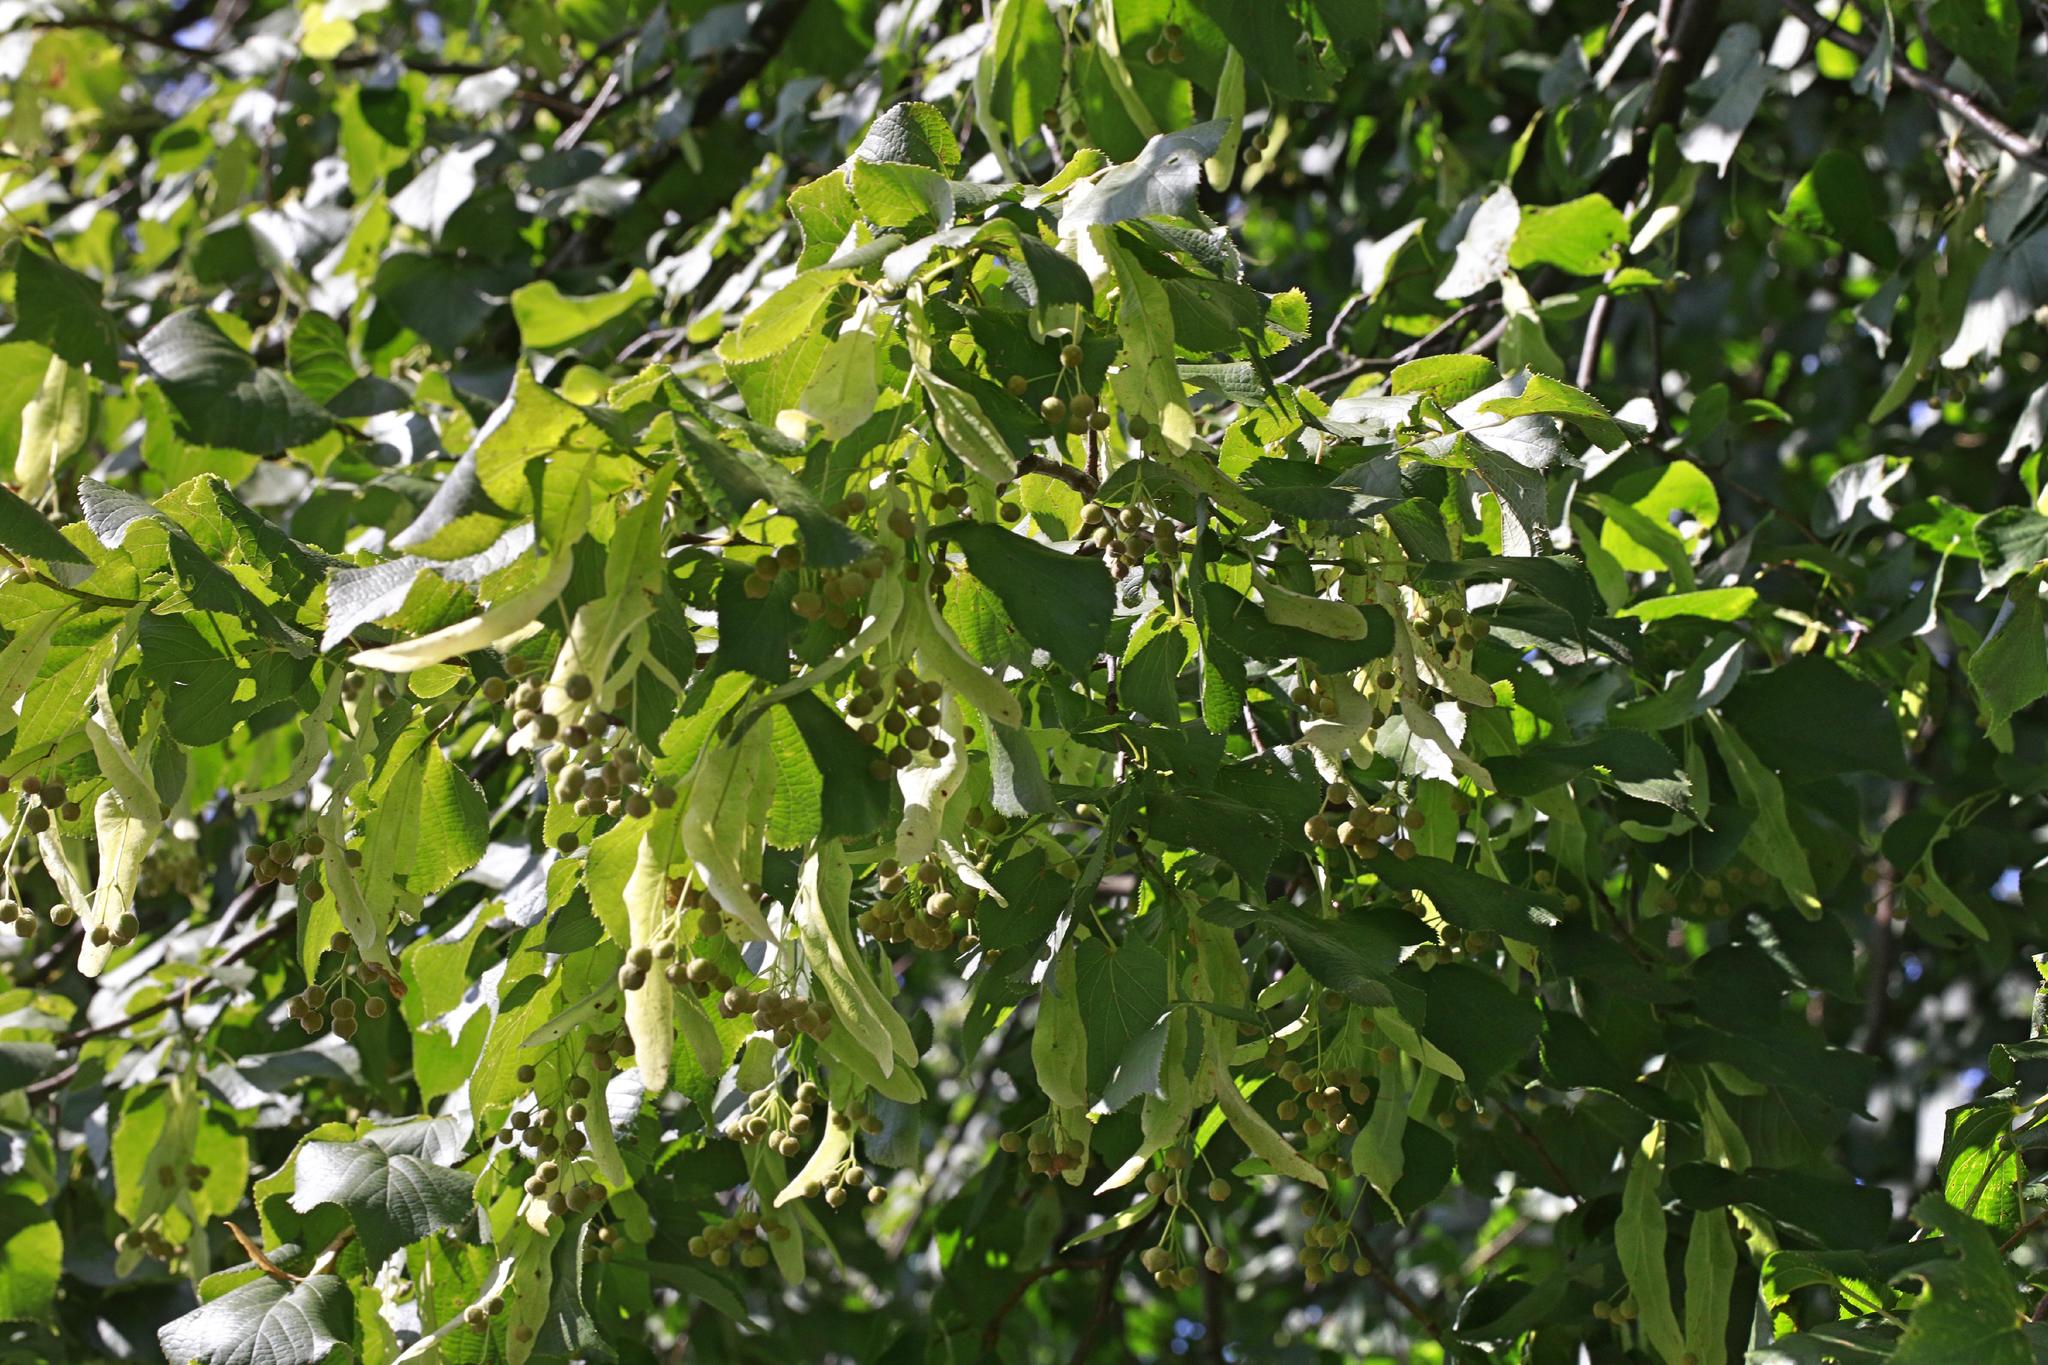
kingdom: Plantae
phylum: Tracheophyta
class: Magnoliopsida
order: Malvales
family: Malvaceae
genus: Tilia
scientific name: Tilia europaea
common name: European linden
